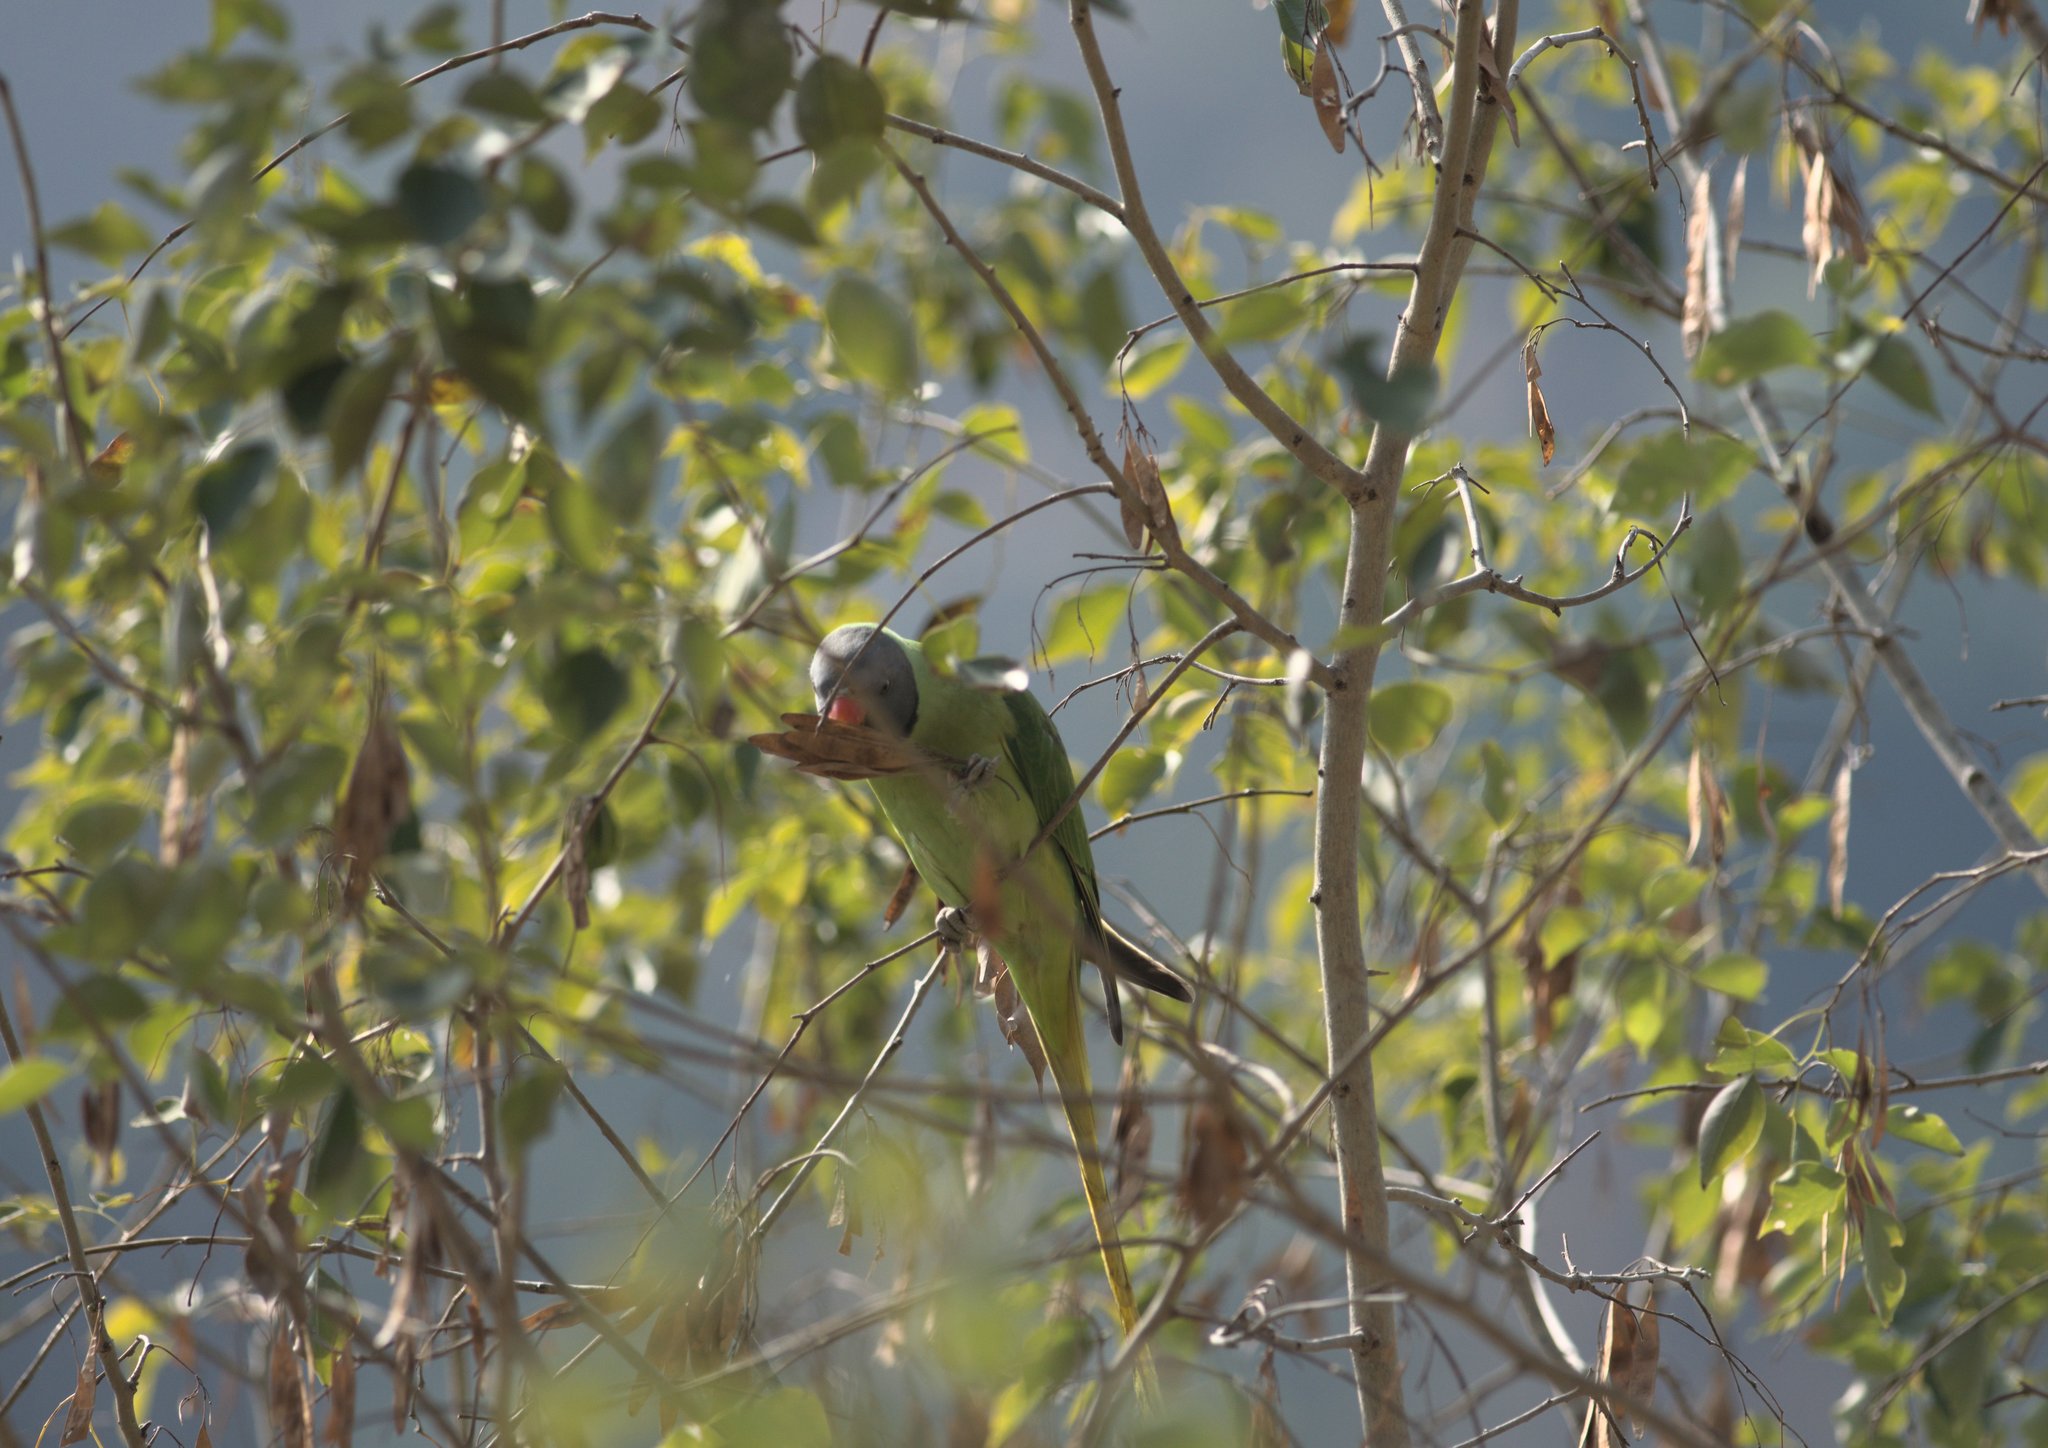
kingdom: Animalia
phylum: Chordata
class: Aves
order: Psittaciformes
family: Psittacidae
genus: Psittacula
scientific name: Psittacula himalayana
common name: Slaty-headed parakeet
